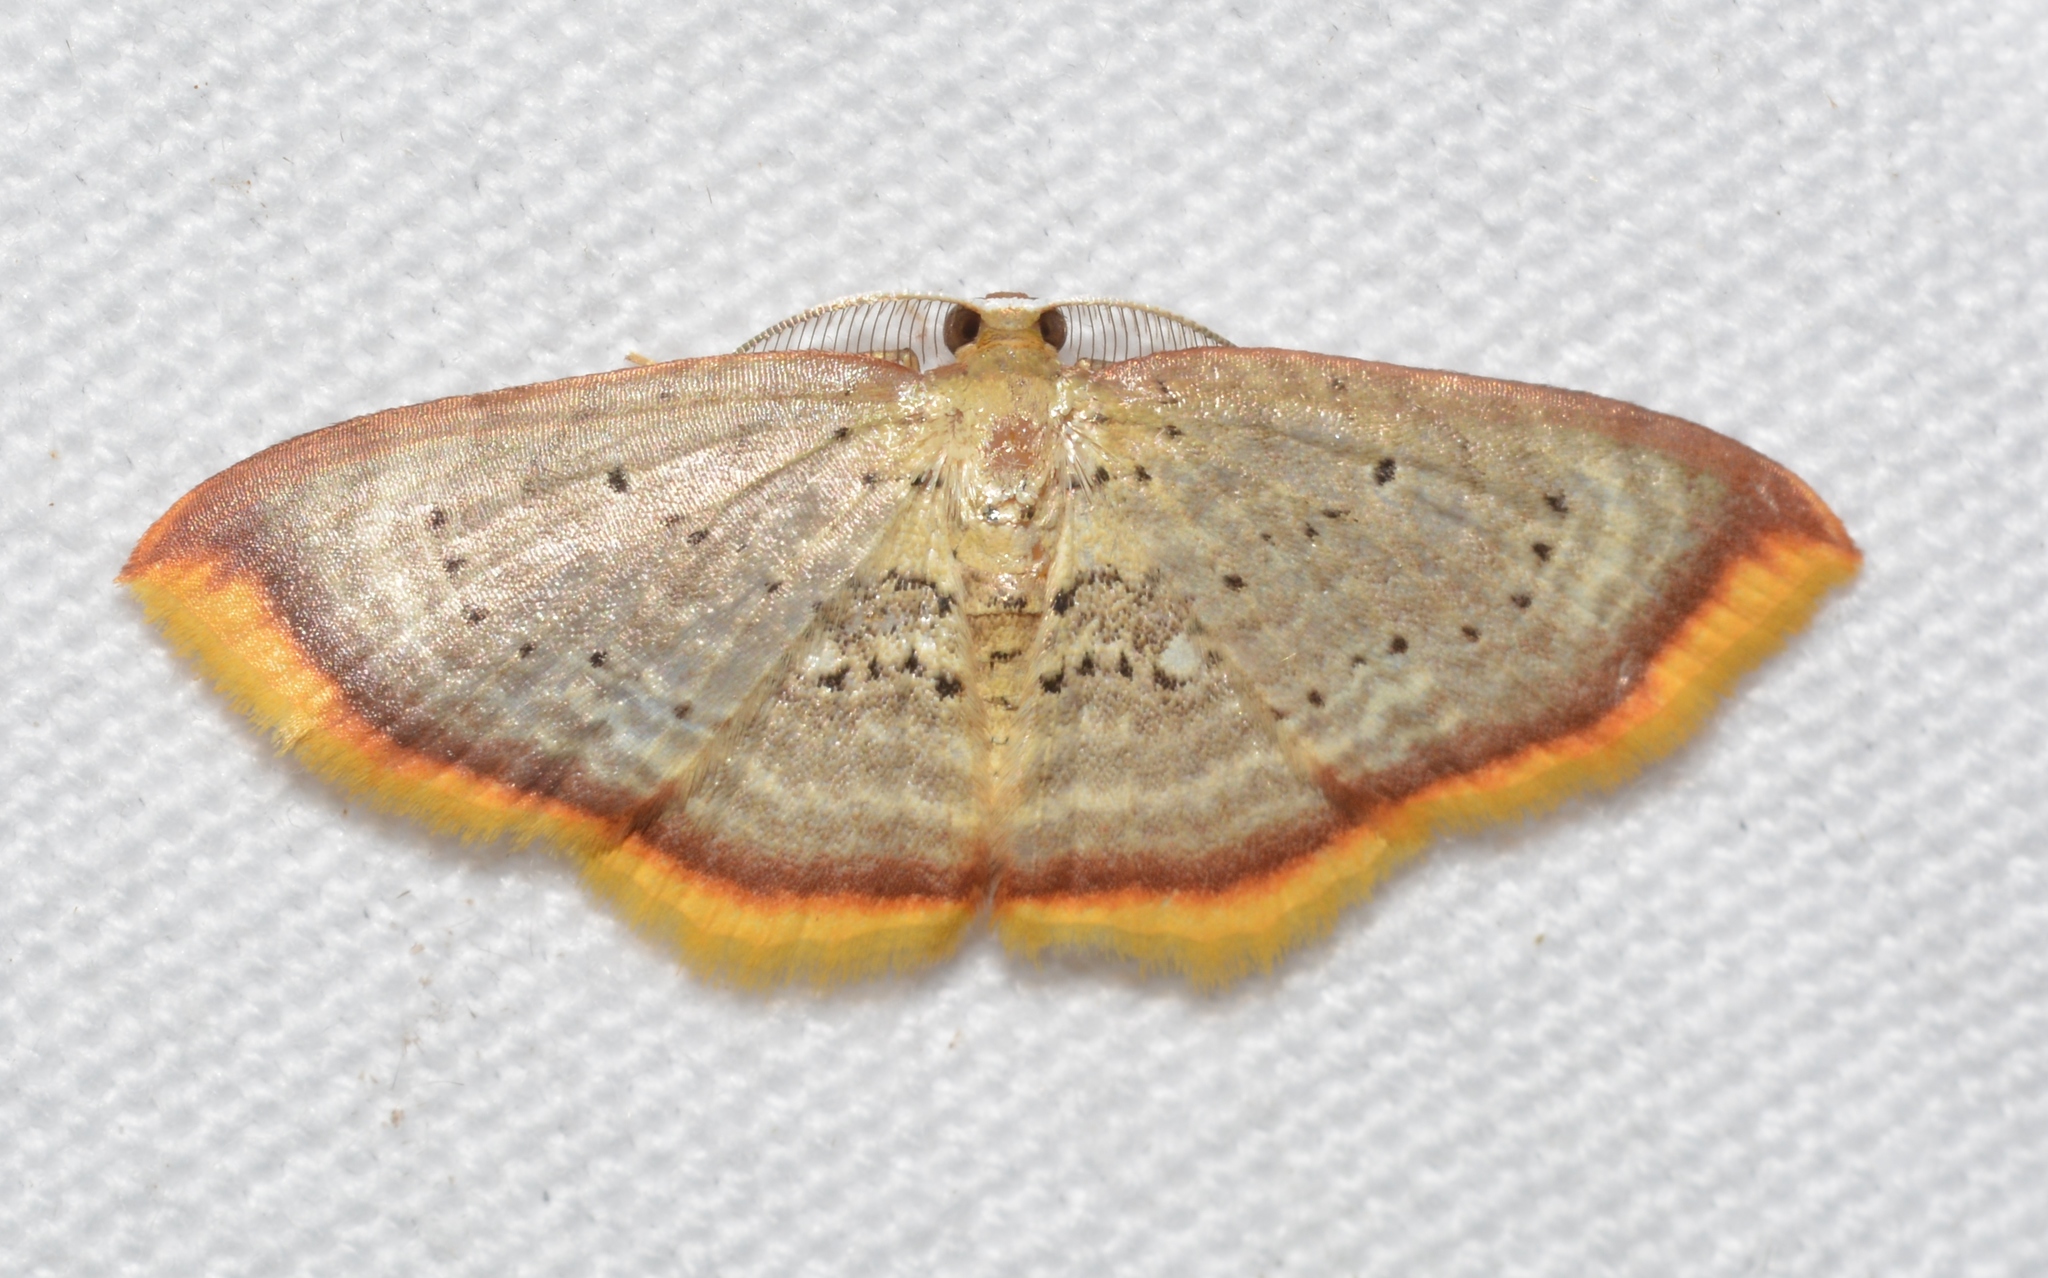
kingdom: Animalia
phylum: Arthropoda
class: Insecta
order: Lepidoptera
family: Geometridae
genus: Eois
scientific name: Eois antiopata
